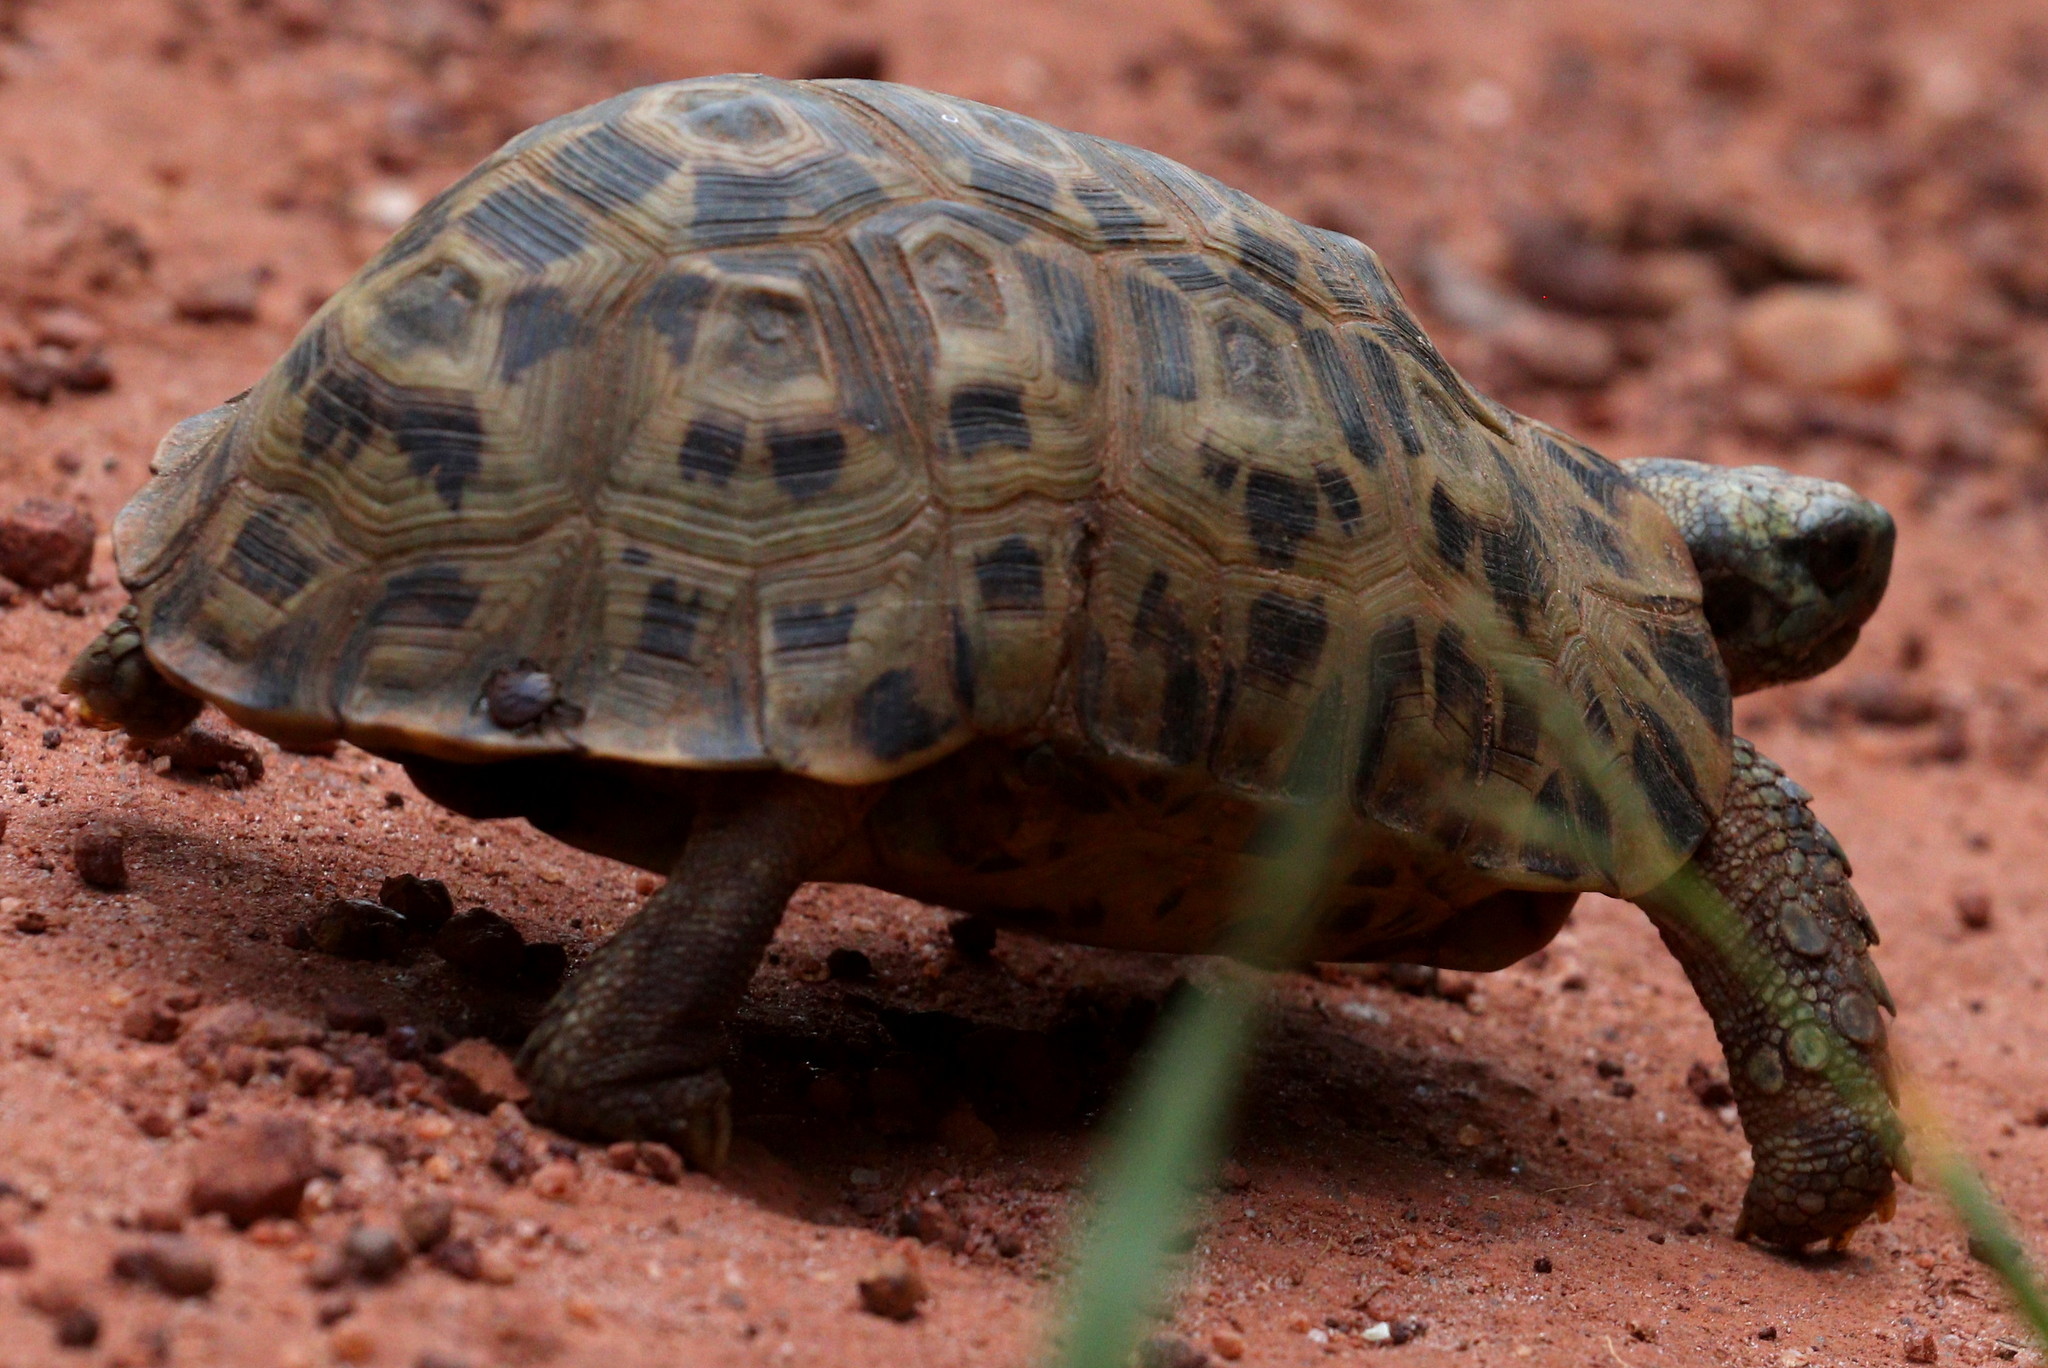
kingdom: Animalia
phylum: Chordata
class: Testudines
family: Testudinidae
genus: Kinixys
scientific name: Kinixys zombensis
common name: Southeastern hinge-back tortoise
